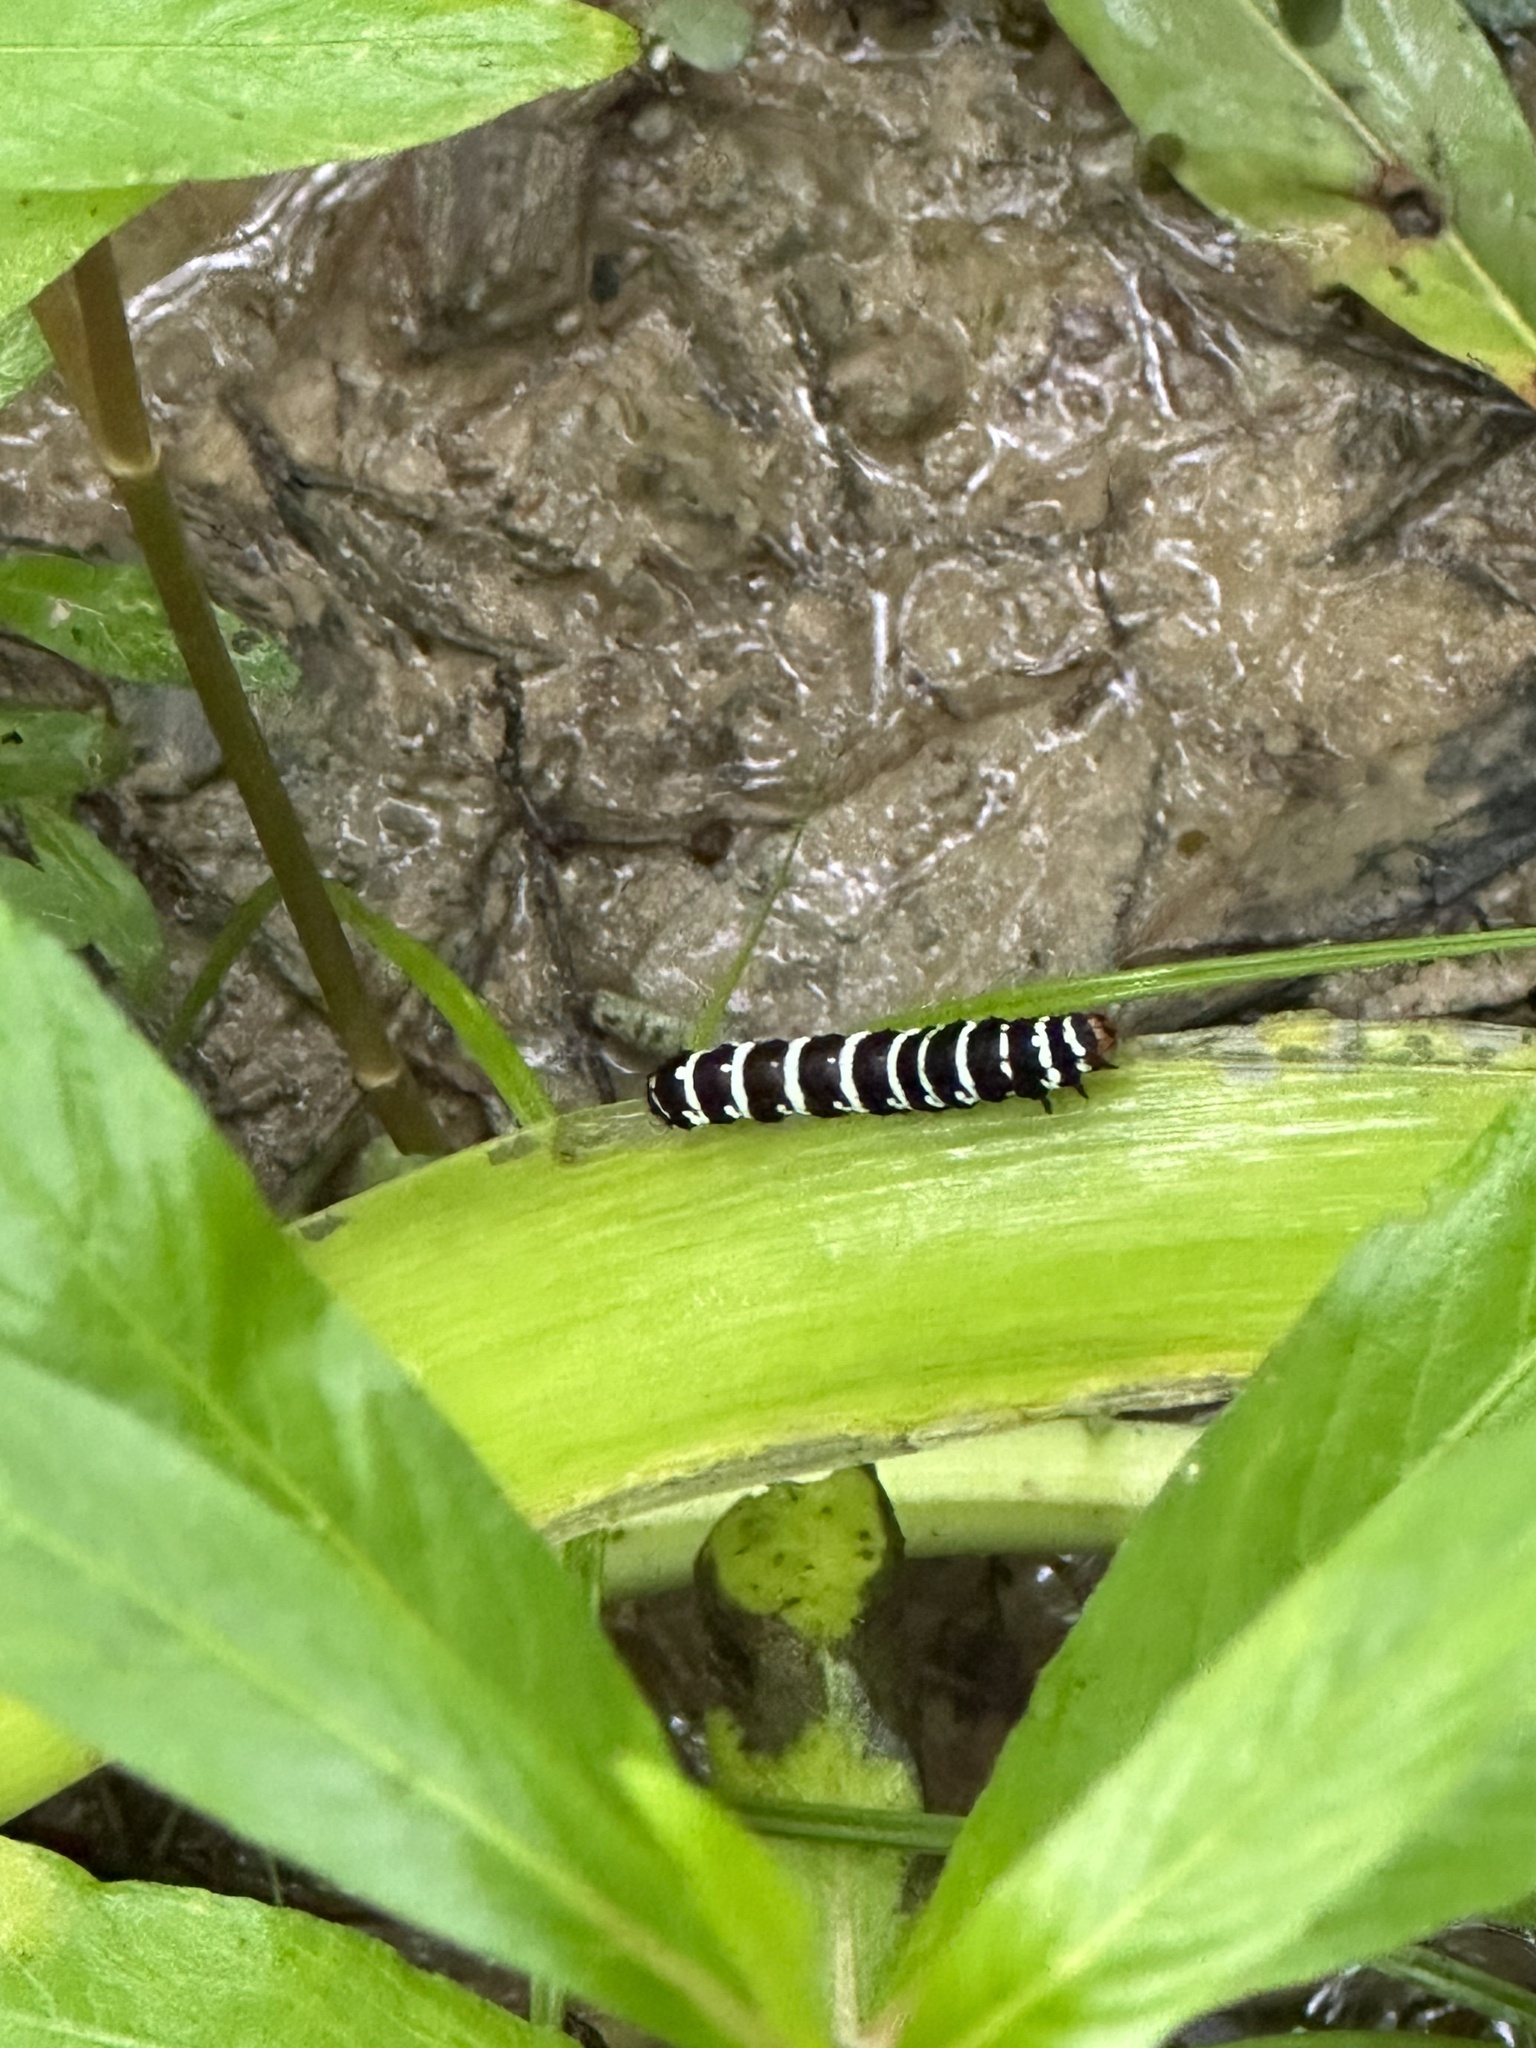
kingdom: Animalia
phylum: Arthropoda
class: Insecta
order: Lepidoptera
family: Noctuidae
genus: Xanthopastis
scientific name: Xanthopastis regnatrix
